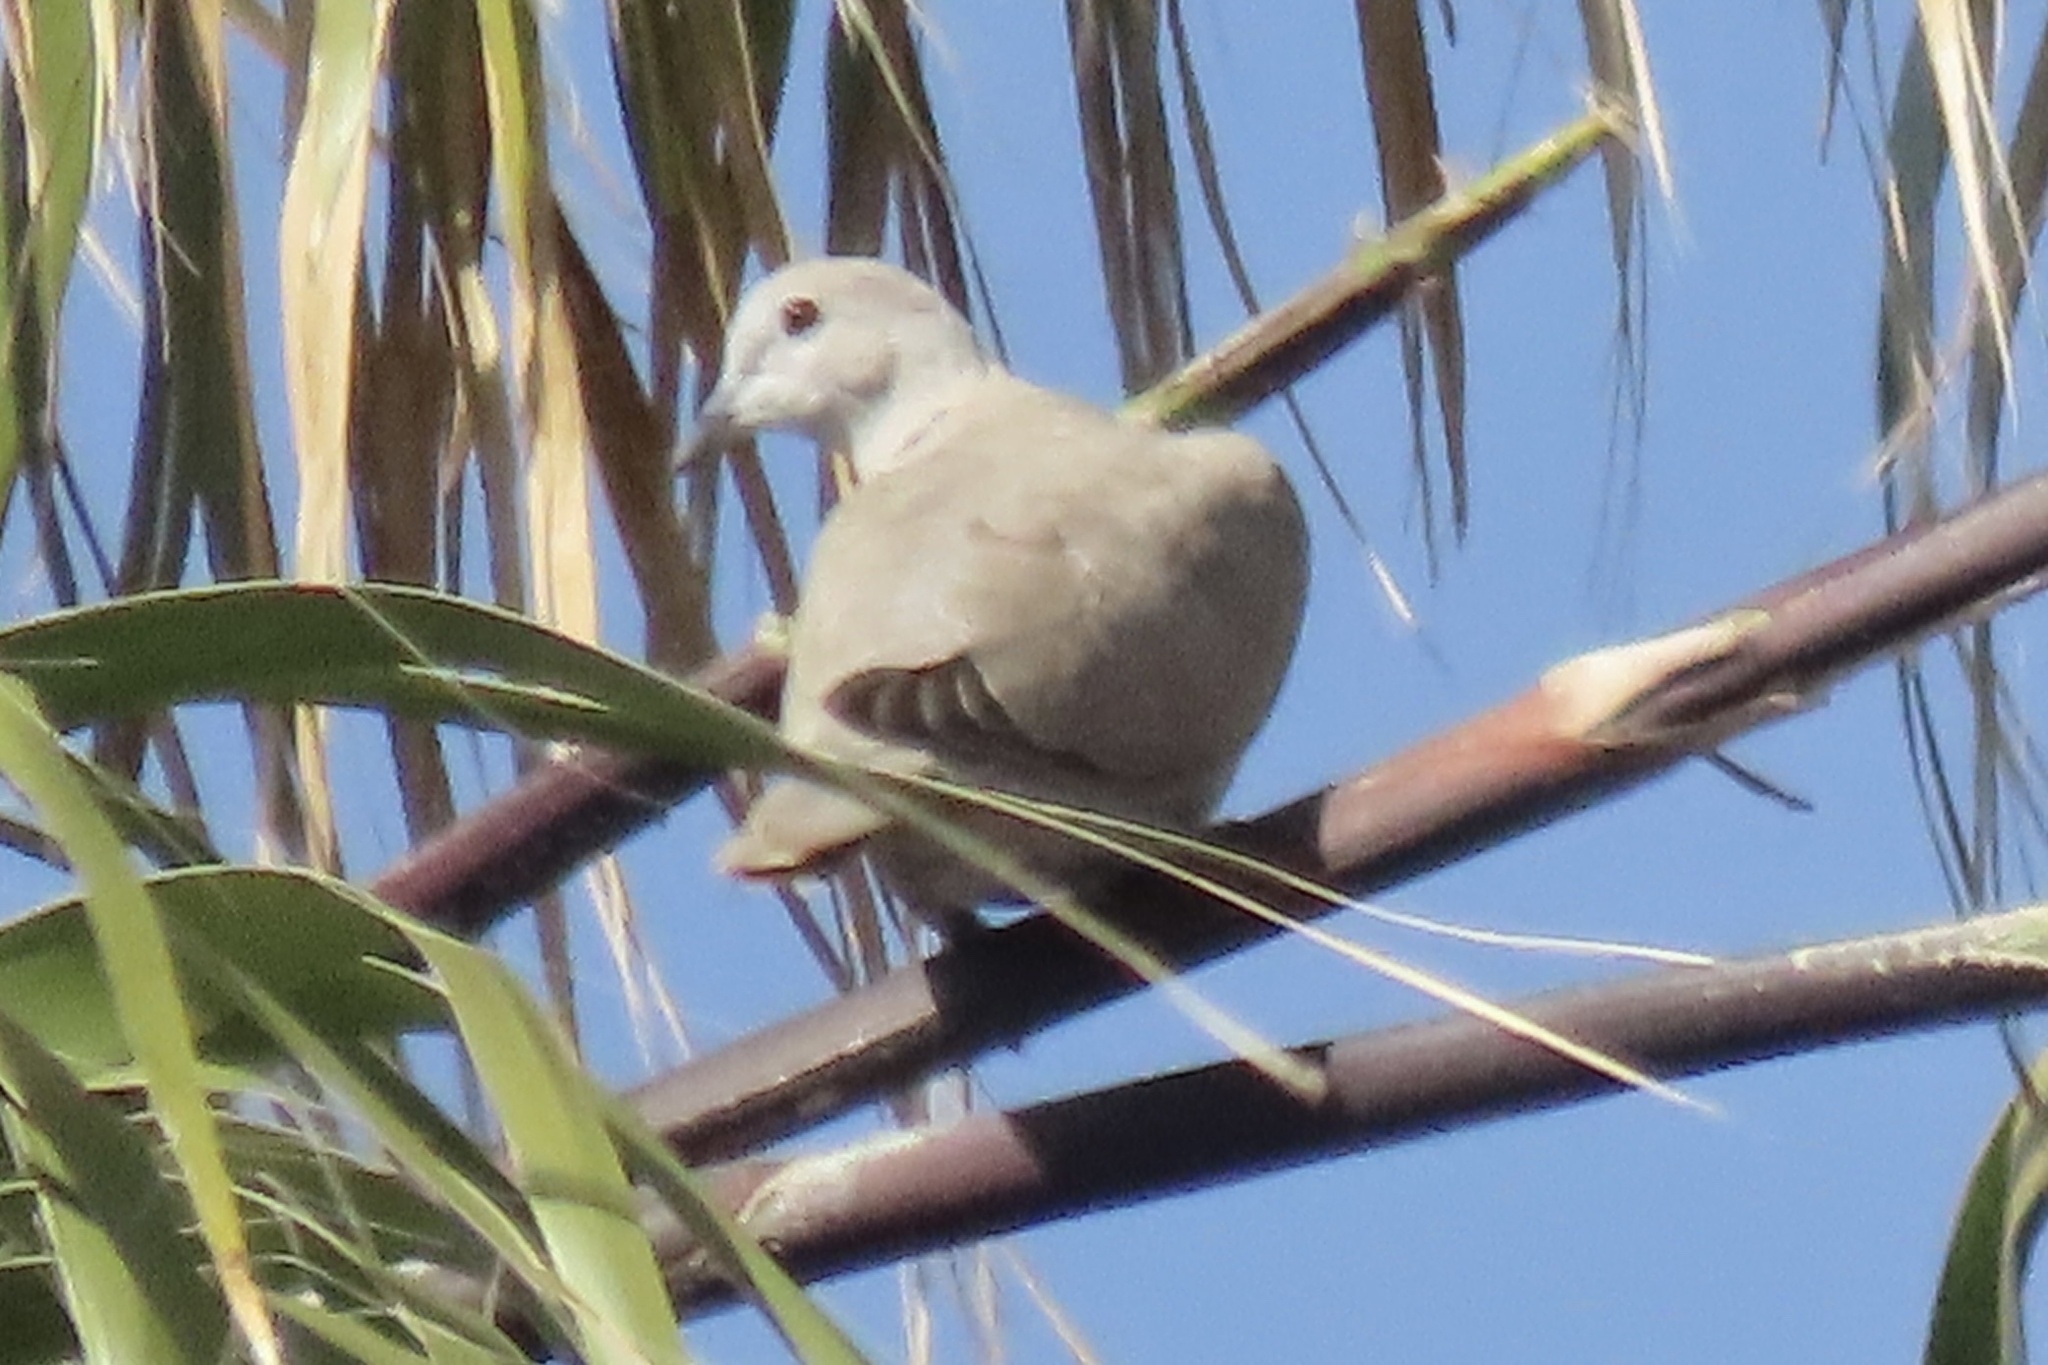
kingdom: Animalia
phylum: Chordata
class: Aves
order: Columbiformes
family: Columbidae
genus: Streptopelia
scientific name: Streptopelia decaocto
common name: Eurasian collared dove
